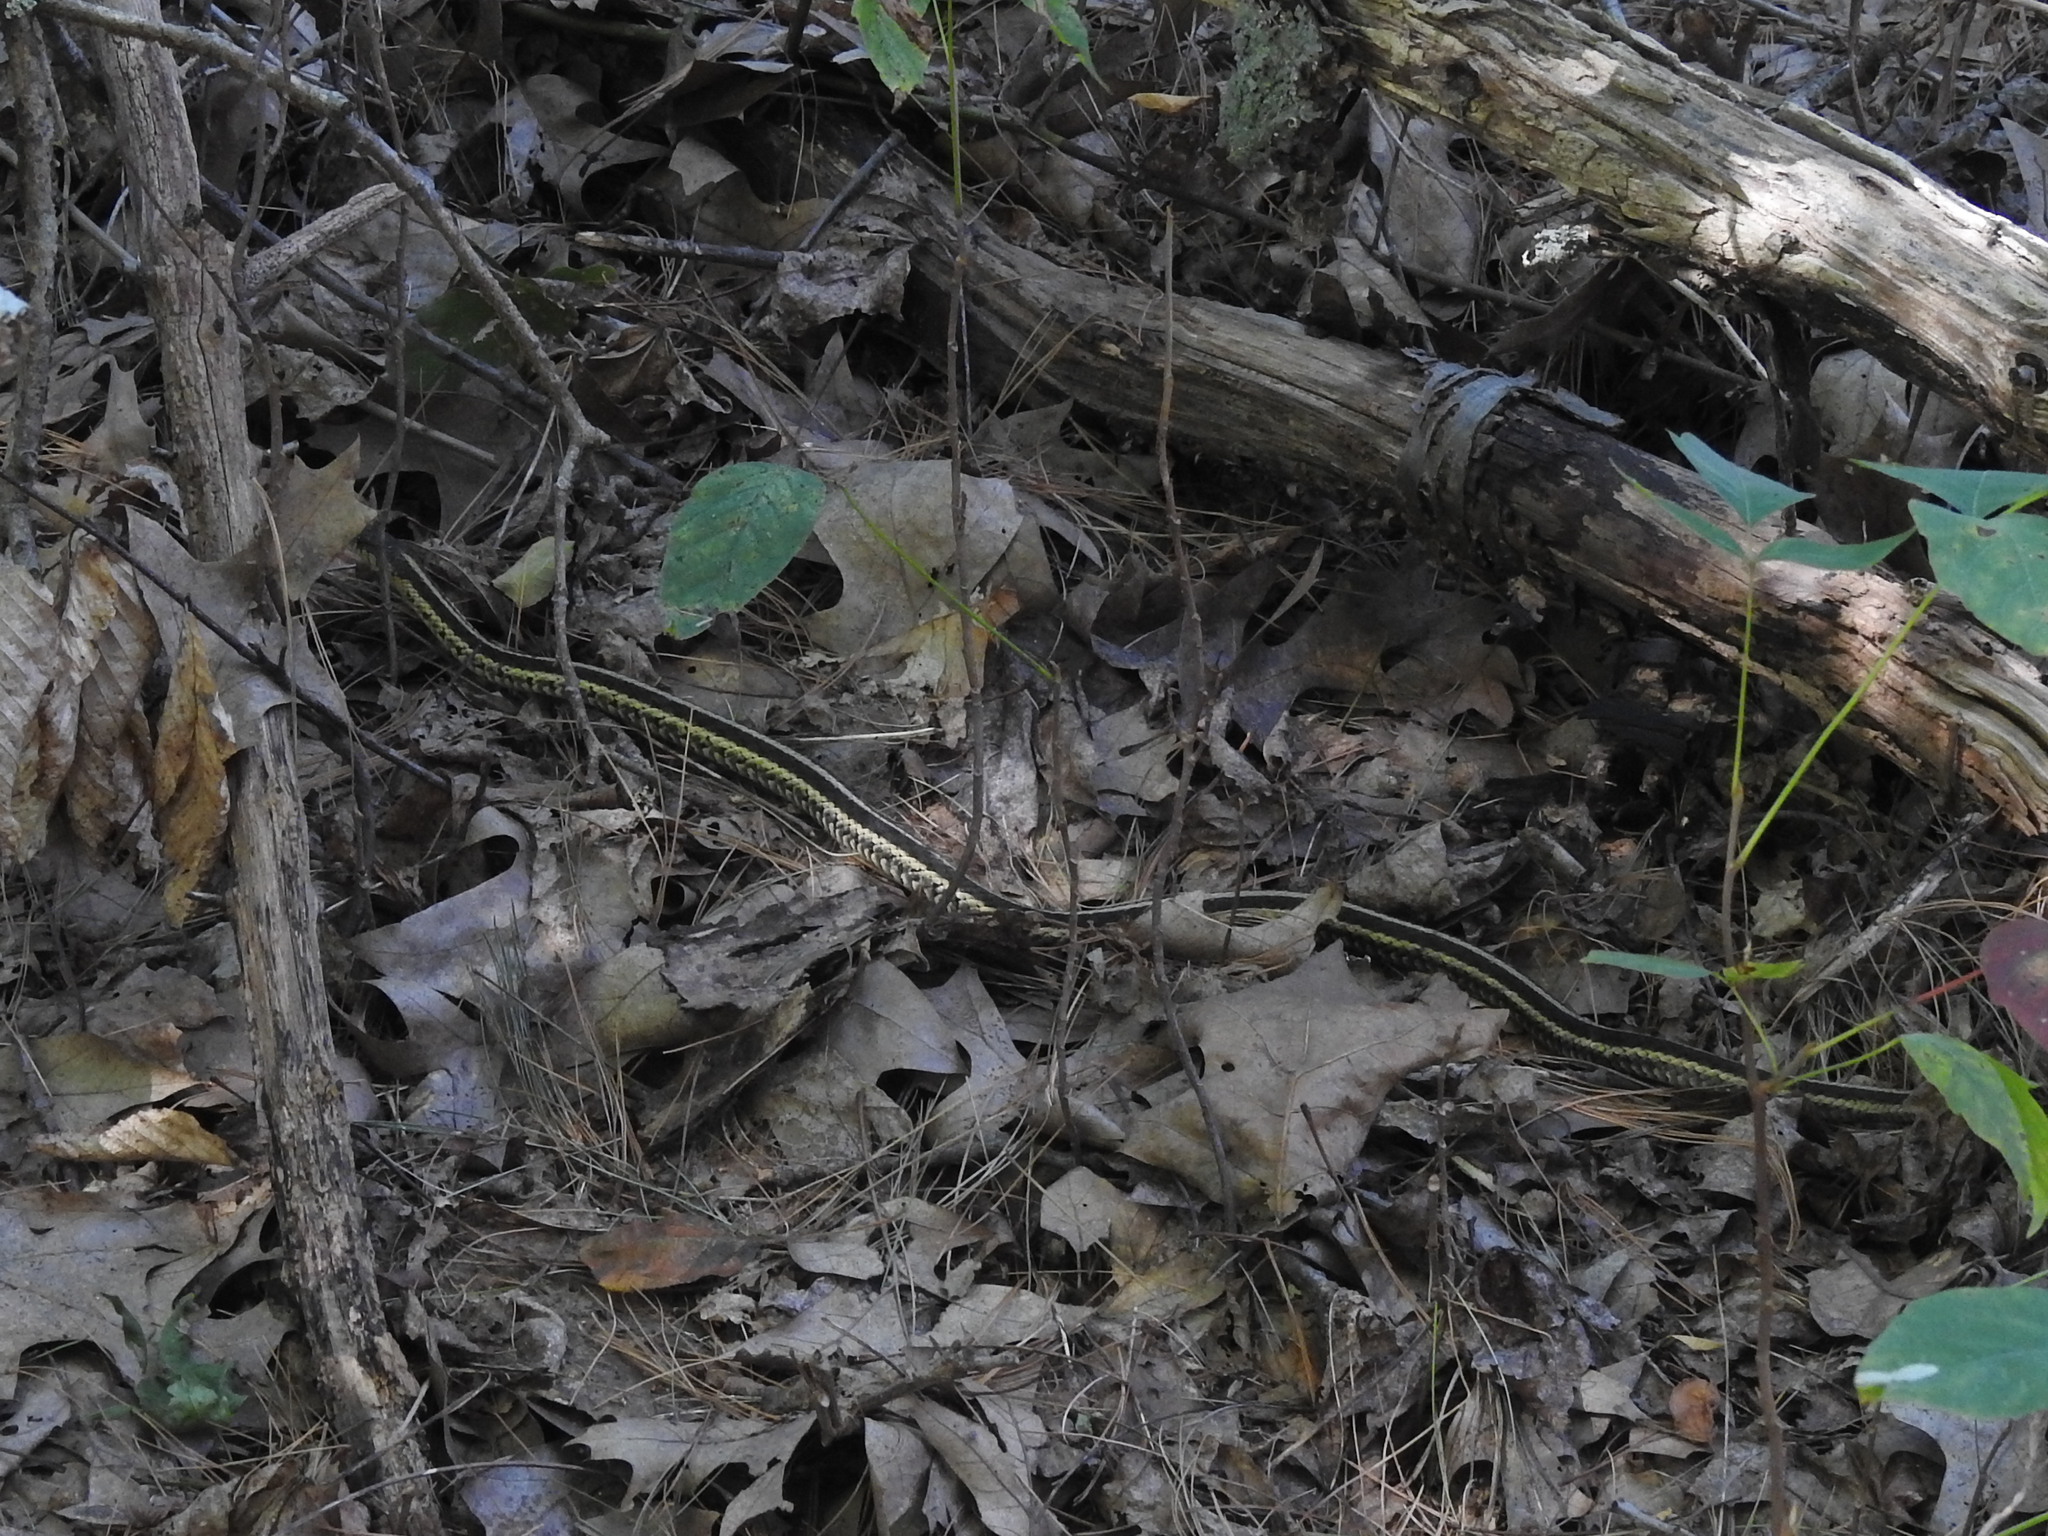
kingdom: Animalia
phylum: Chordata
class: Squamata
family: Colubridae
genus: Thamnophis
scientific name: Thamnophis sirtalis
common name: Common garter snake
